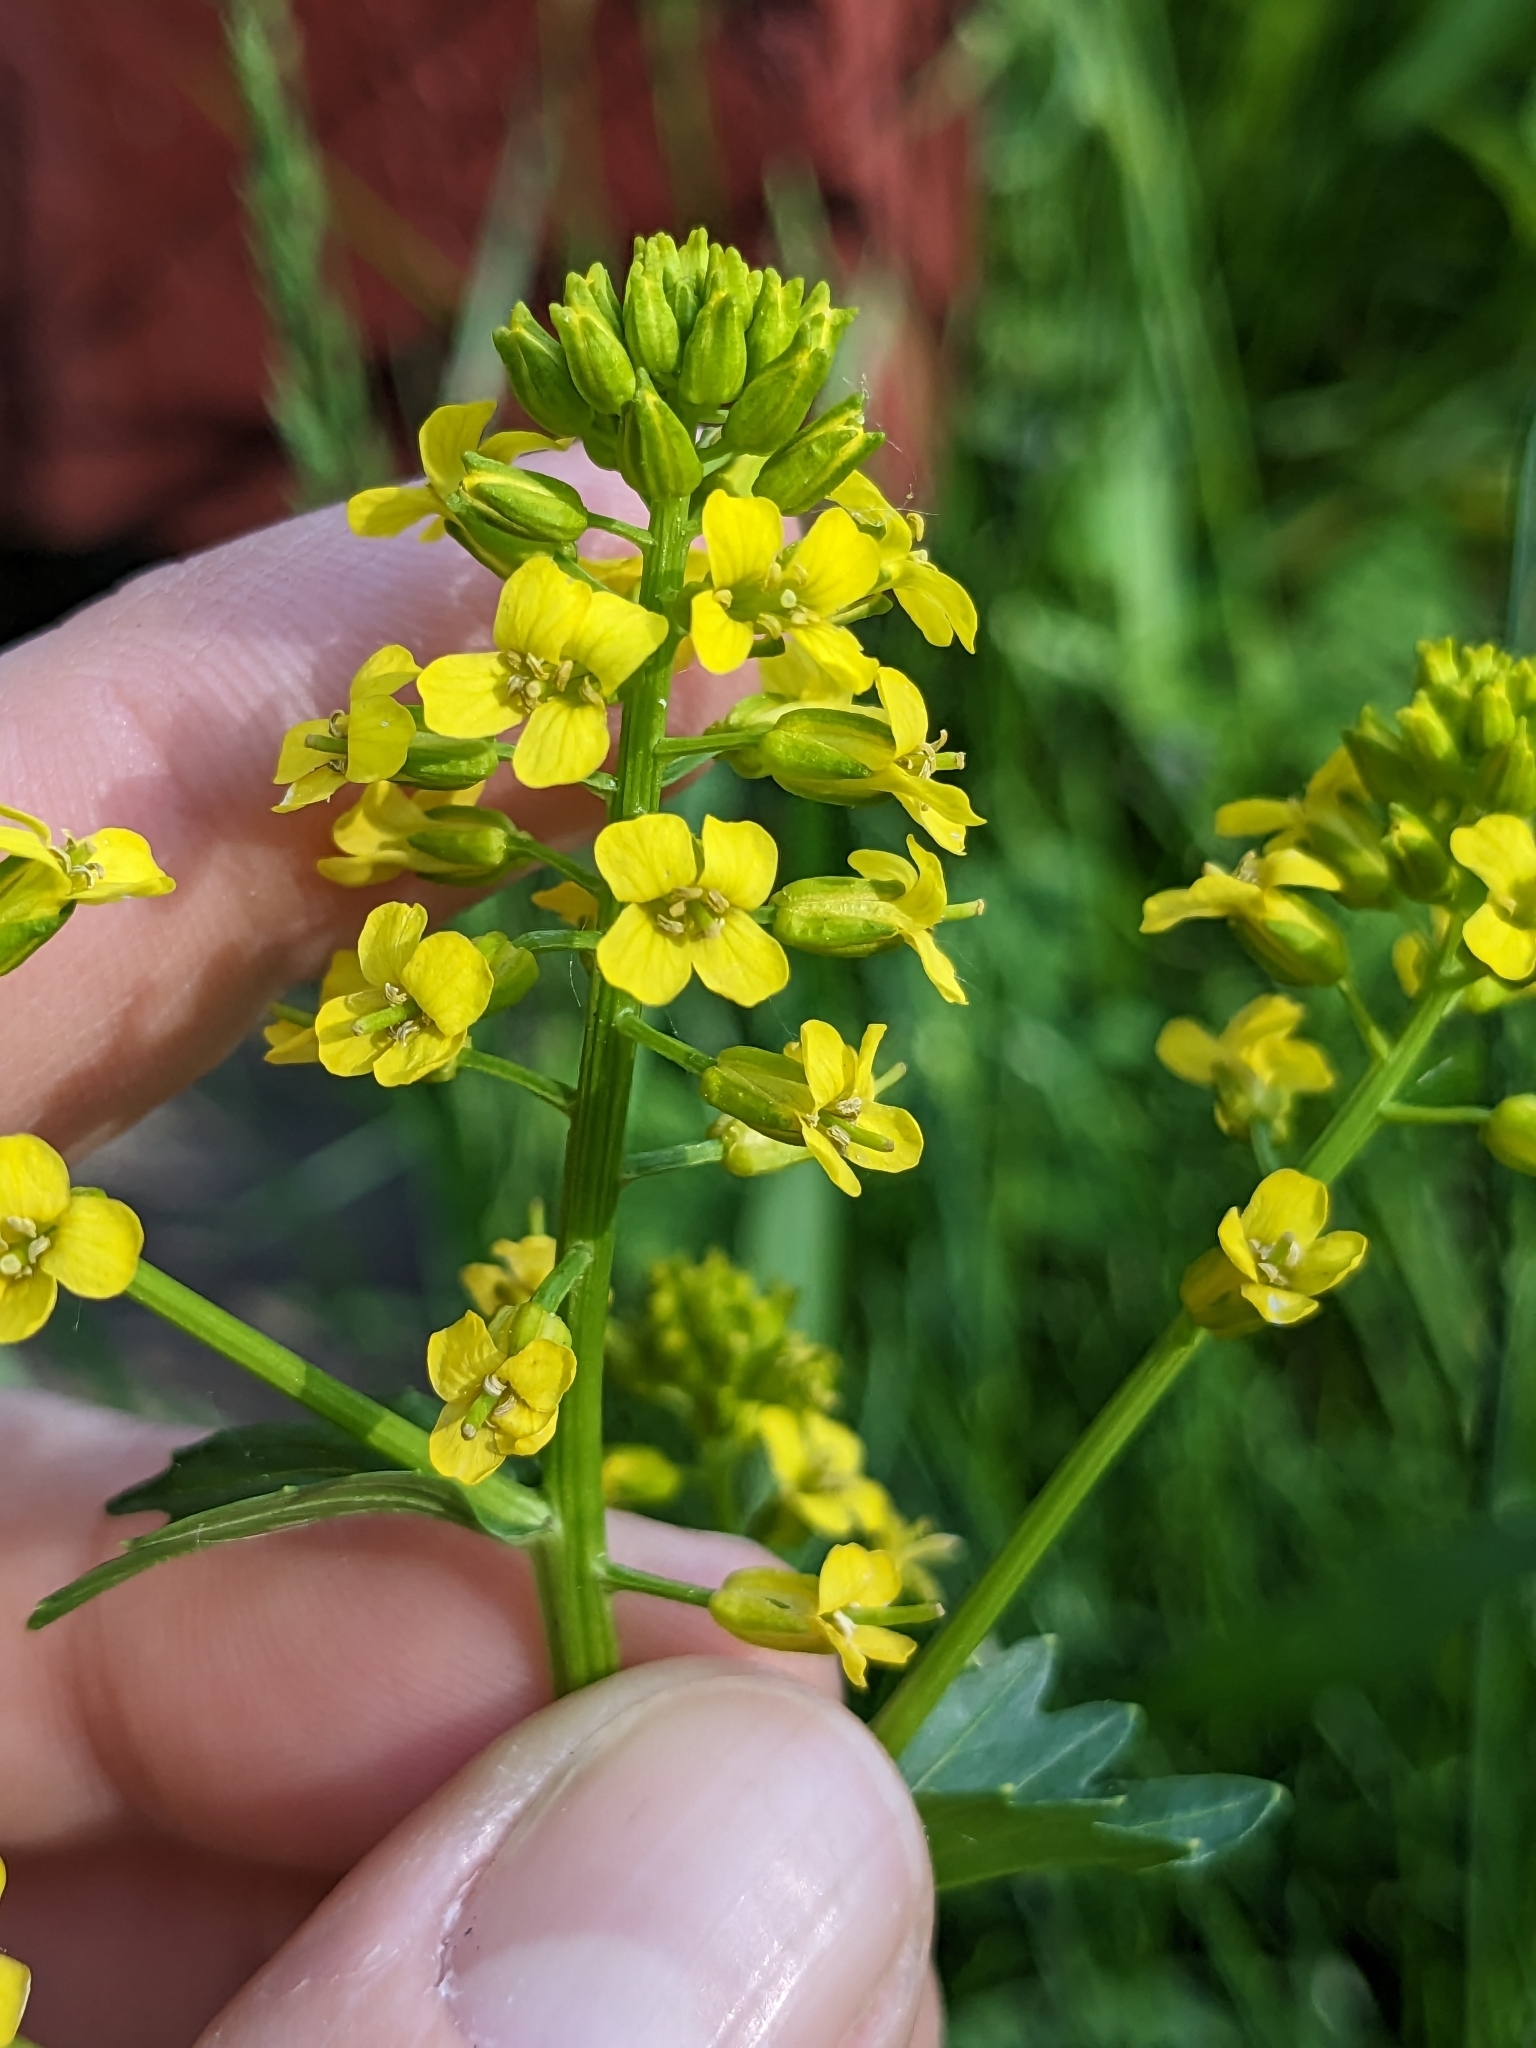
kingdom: Plantae
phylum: Tracheophyta
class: Magnoliopsida
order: Brassicales
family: Brassicaceae
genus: Barbarea
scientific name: Barbarea vulgaris
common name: Cressy-greens
